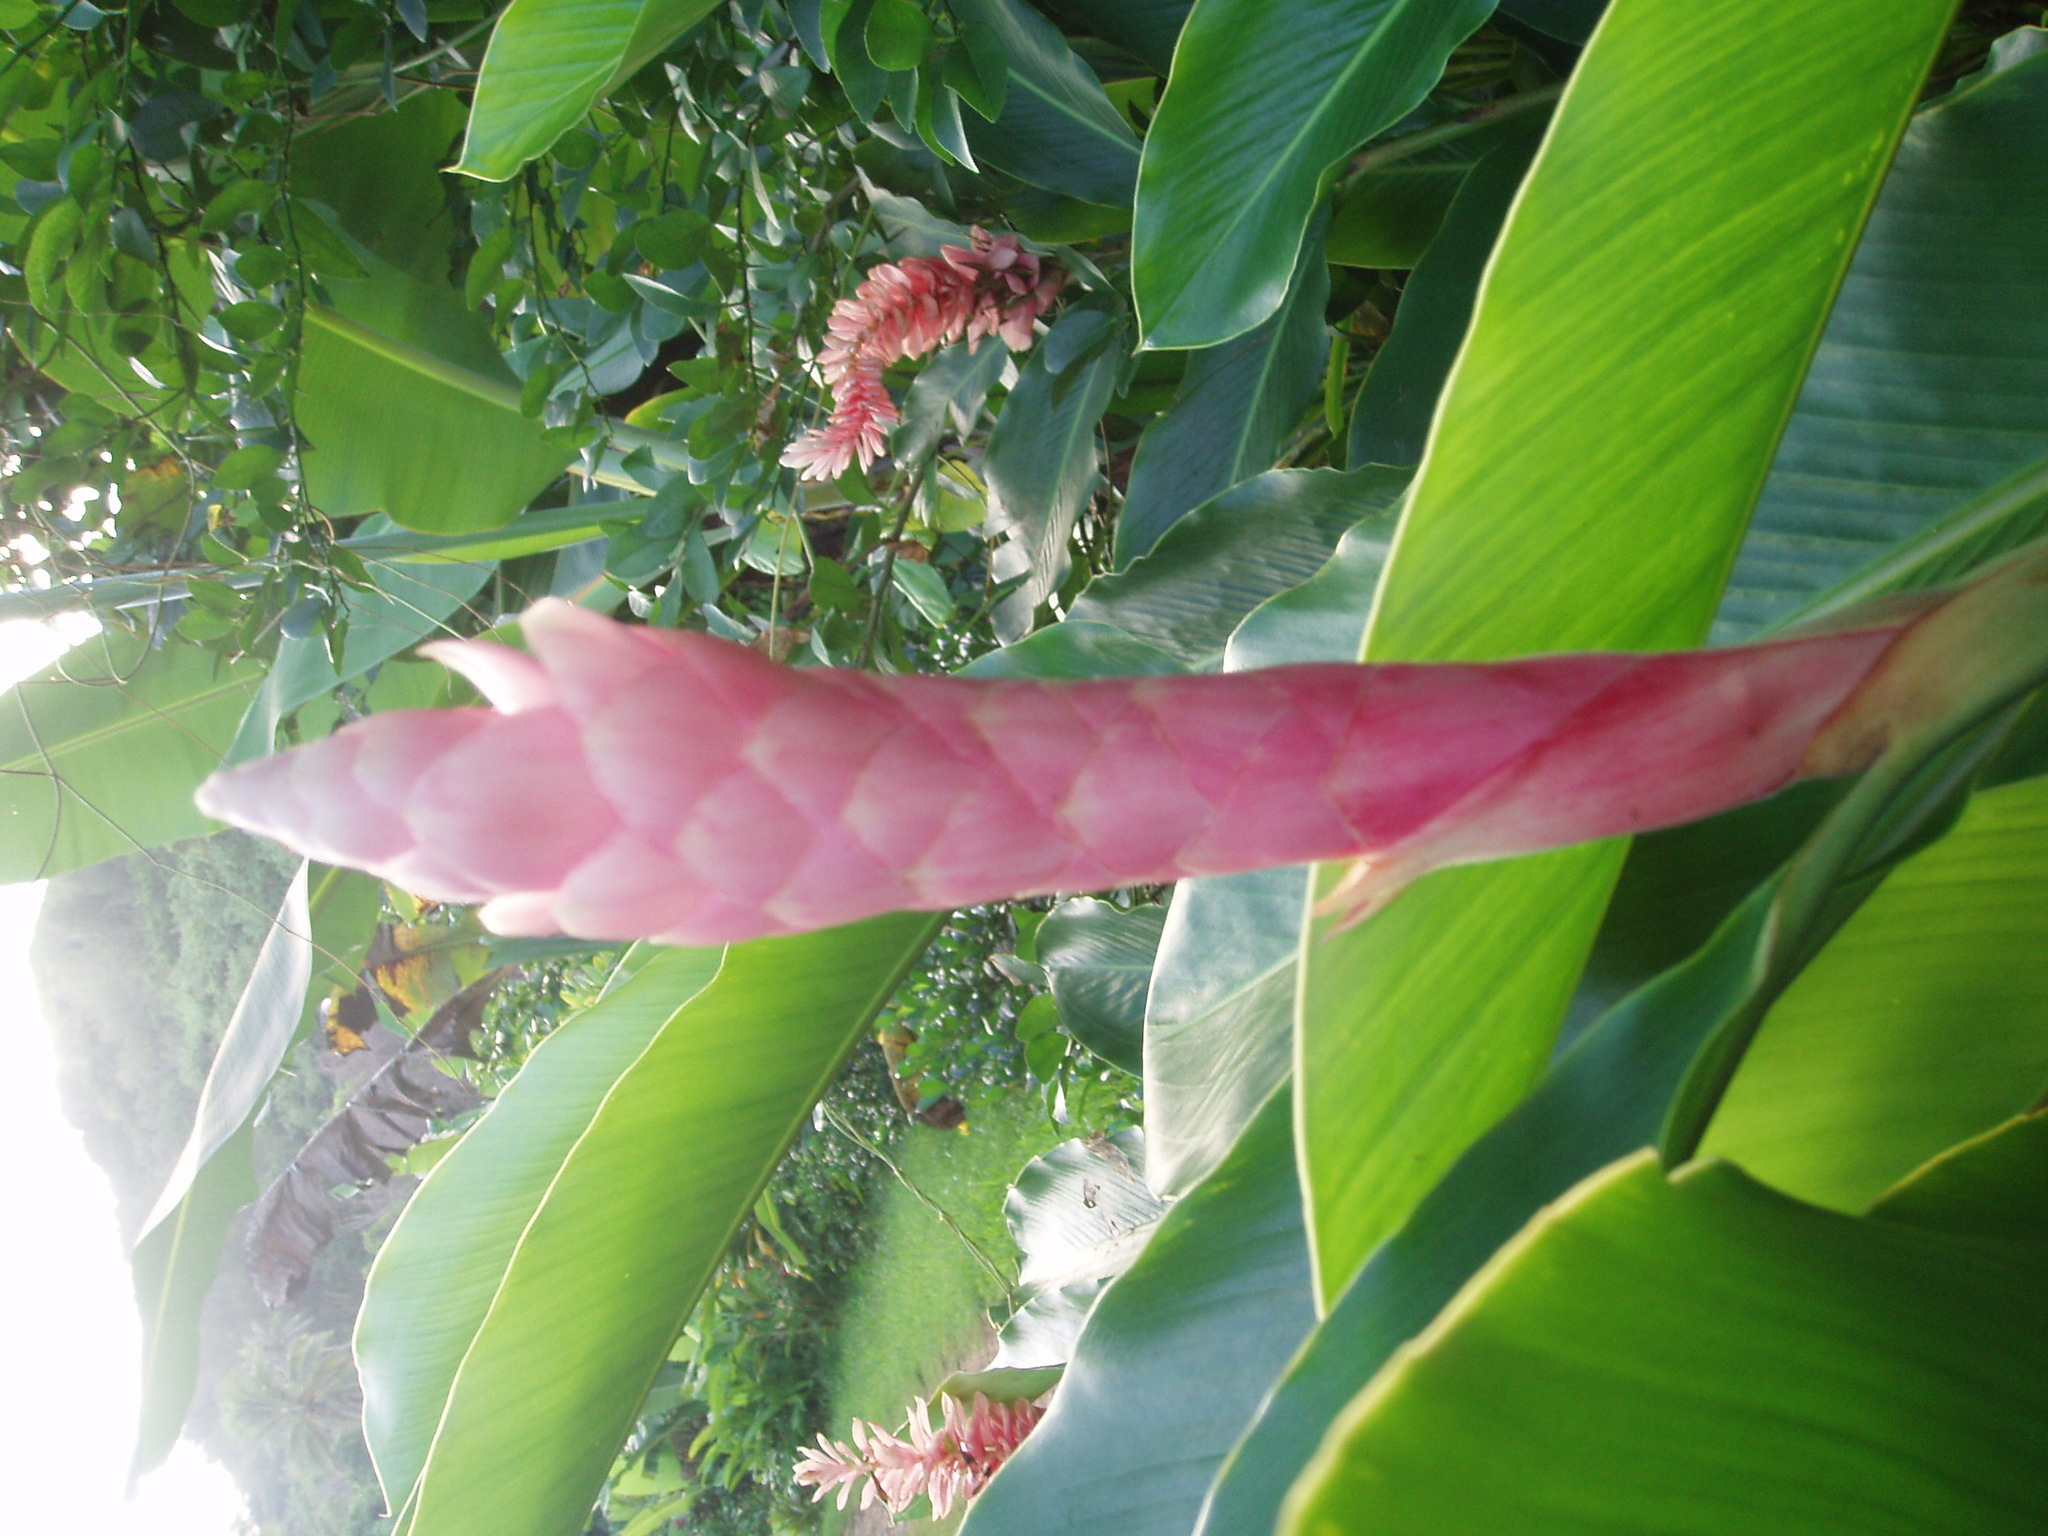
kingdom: Plantae
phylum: Tracheophyta
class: Liliopsida
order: Zingiberales
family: Zingiberaceae
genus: Alpinia
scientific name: Alpinia purpurata
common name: Red ginger
